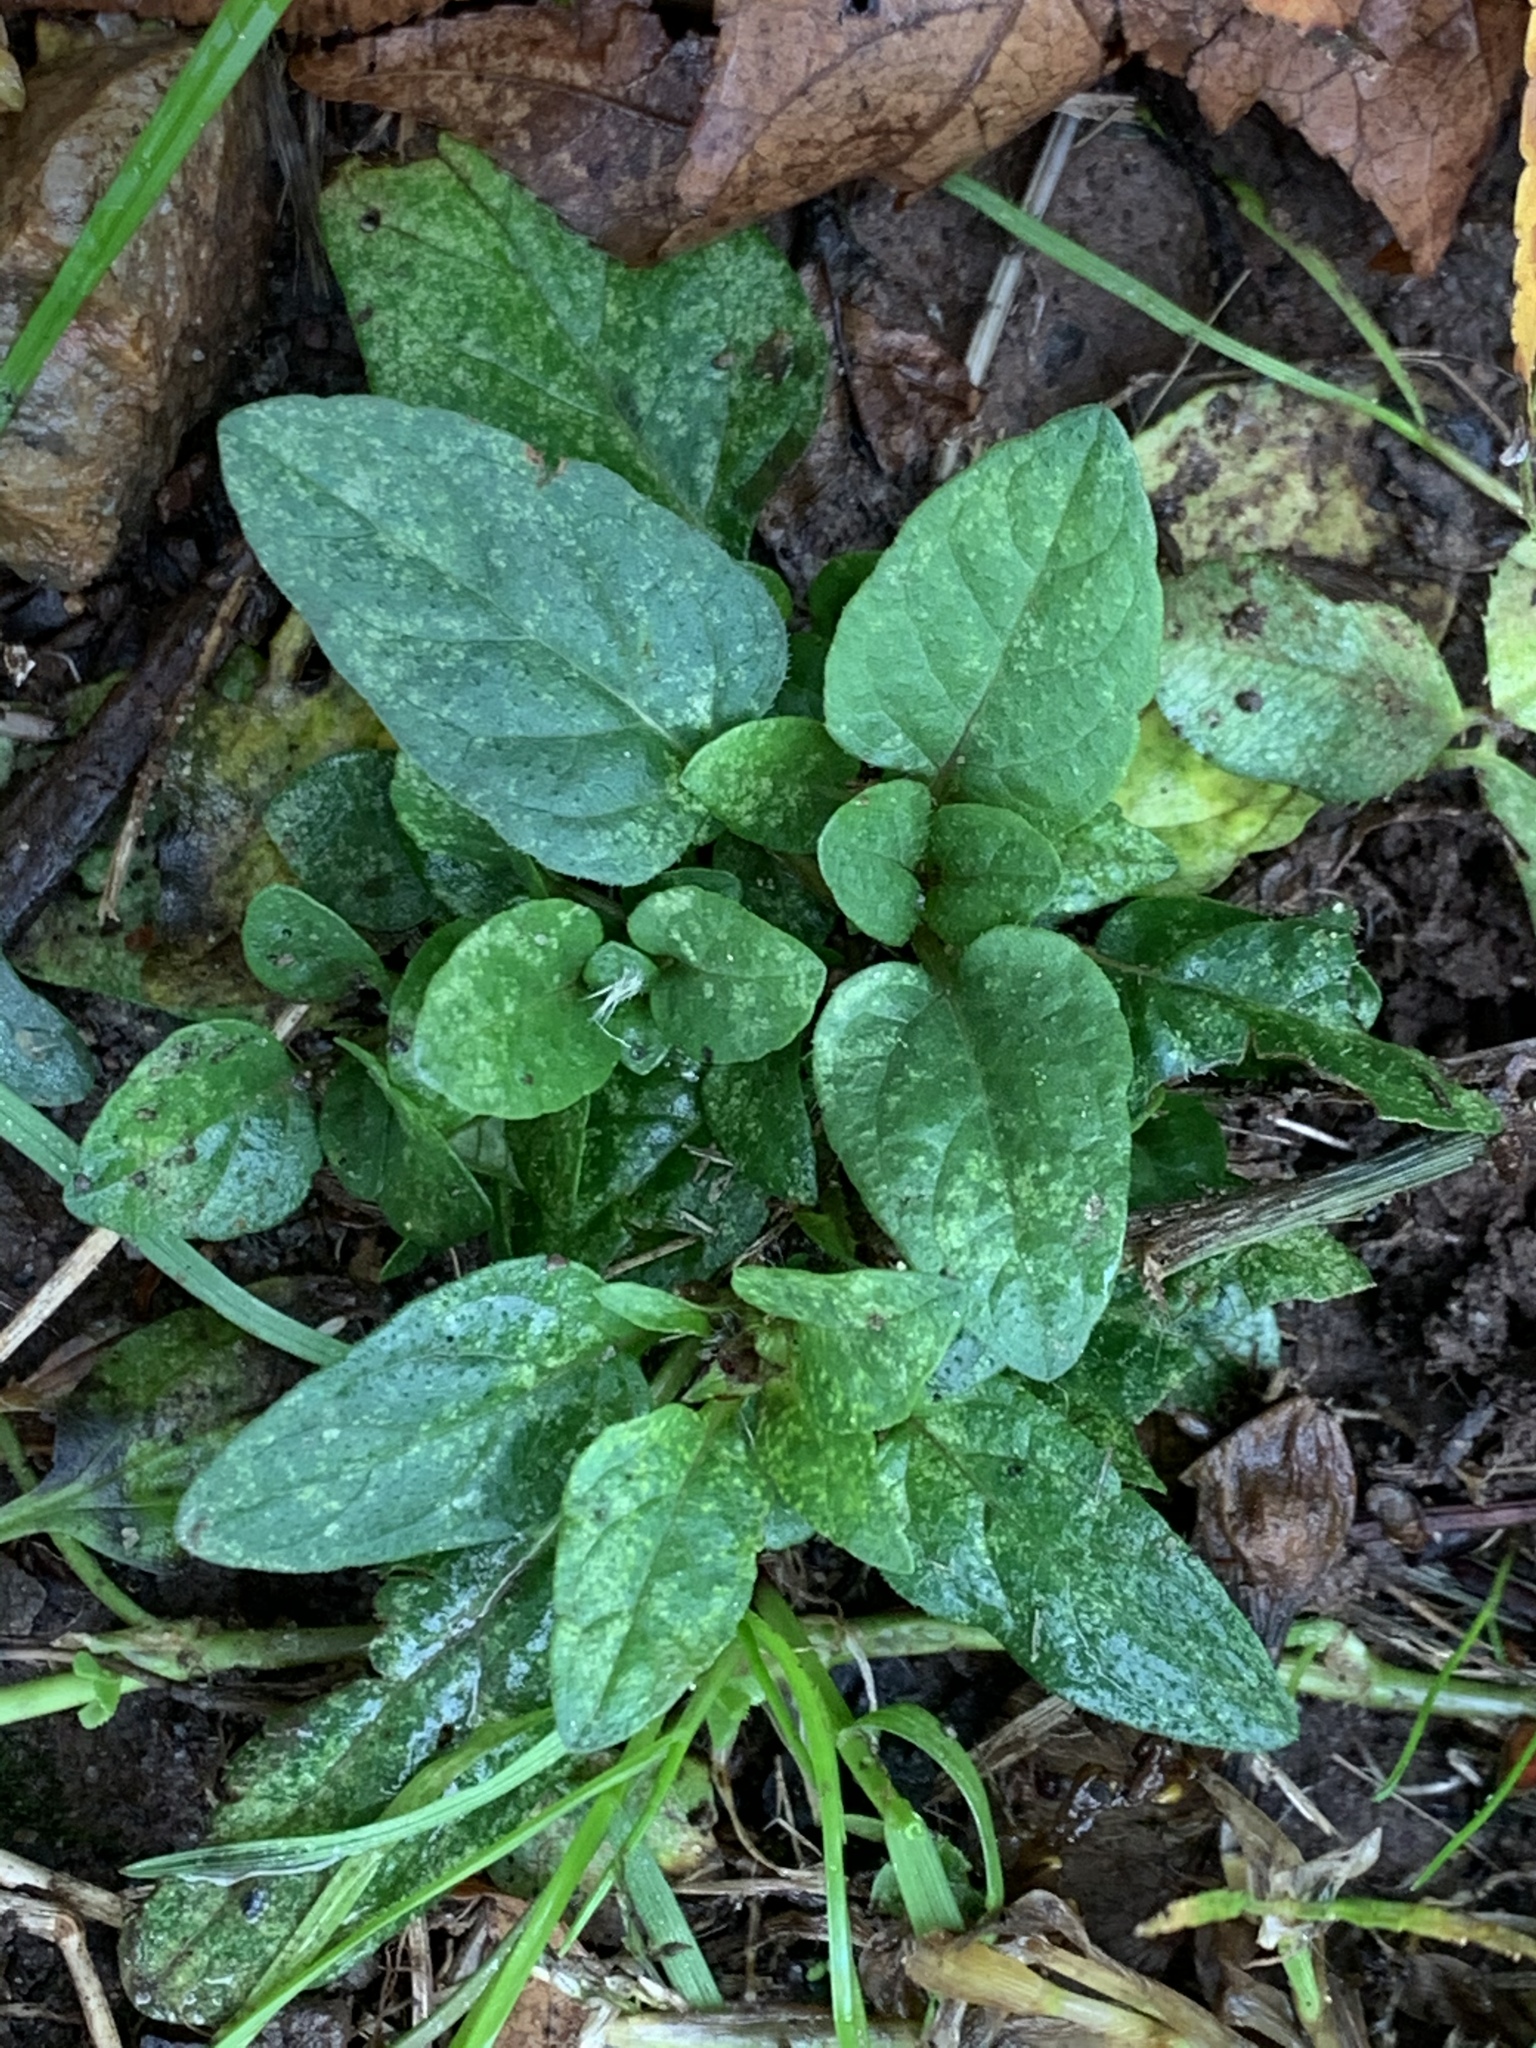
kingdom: Plantae
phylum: Tracheophyta
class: Magnoliopsida
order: Lamiales
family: Lamiaceae
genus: Prunella
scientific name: Prunella vulgaris
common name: Heal-all
